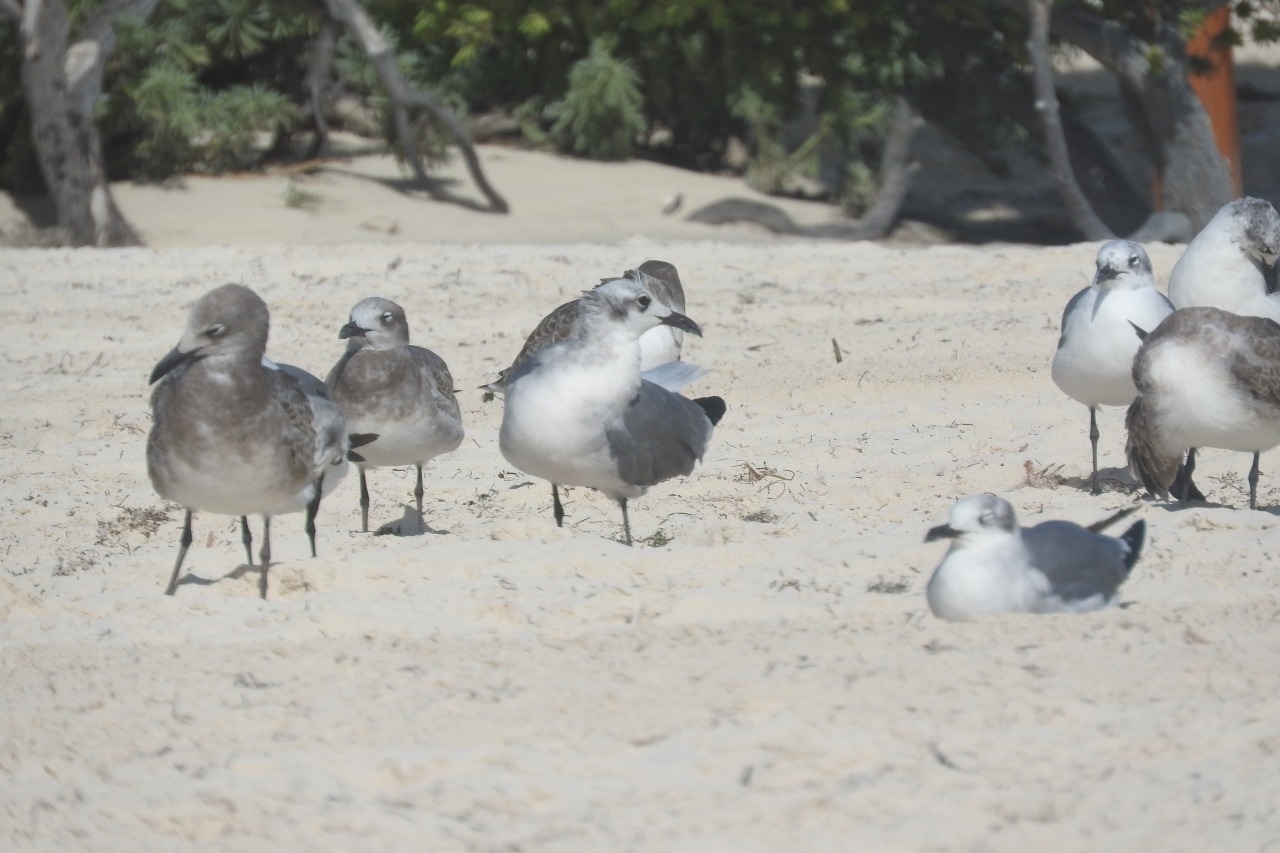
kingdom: Animalia
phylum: Chordata
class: Aves
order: Charadriiformes
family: Laridae
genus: Leucophaeus
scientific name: Leucophaeus atricilla
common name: Laughing gull
